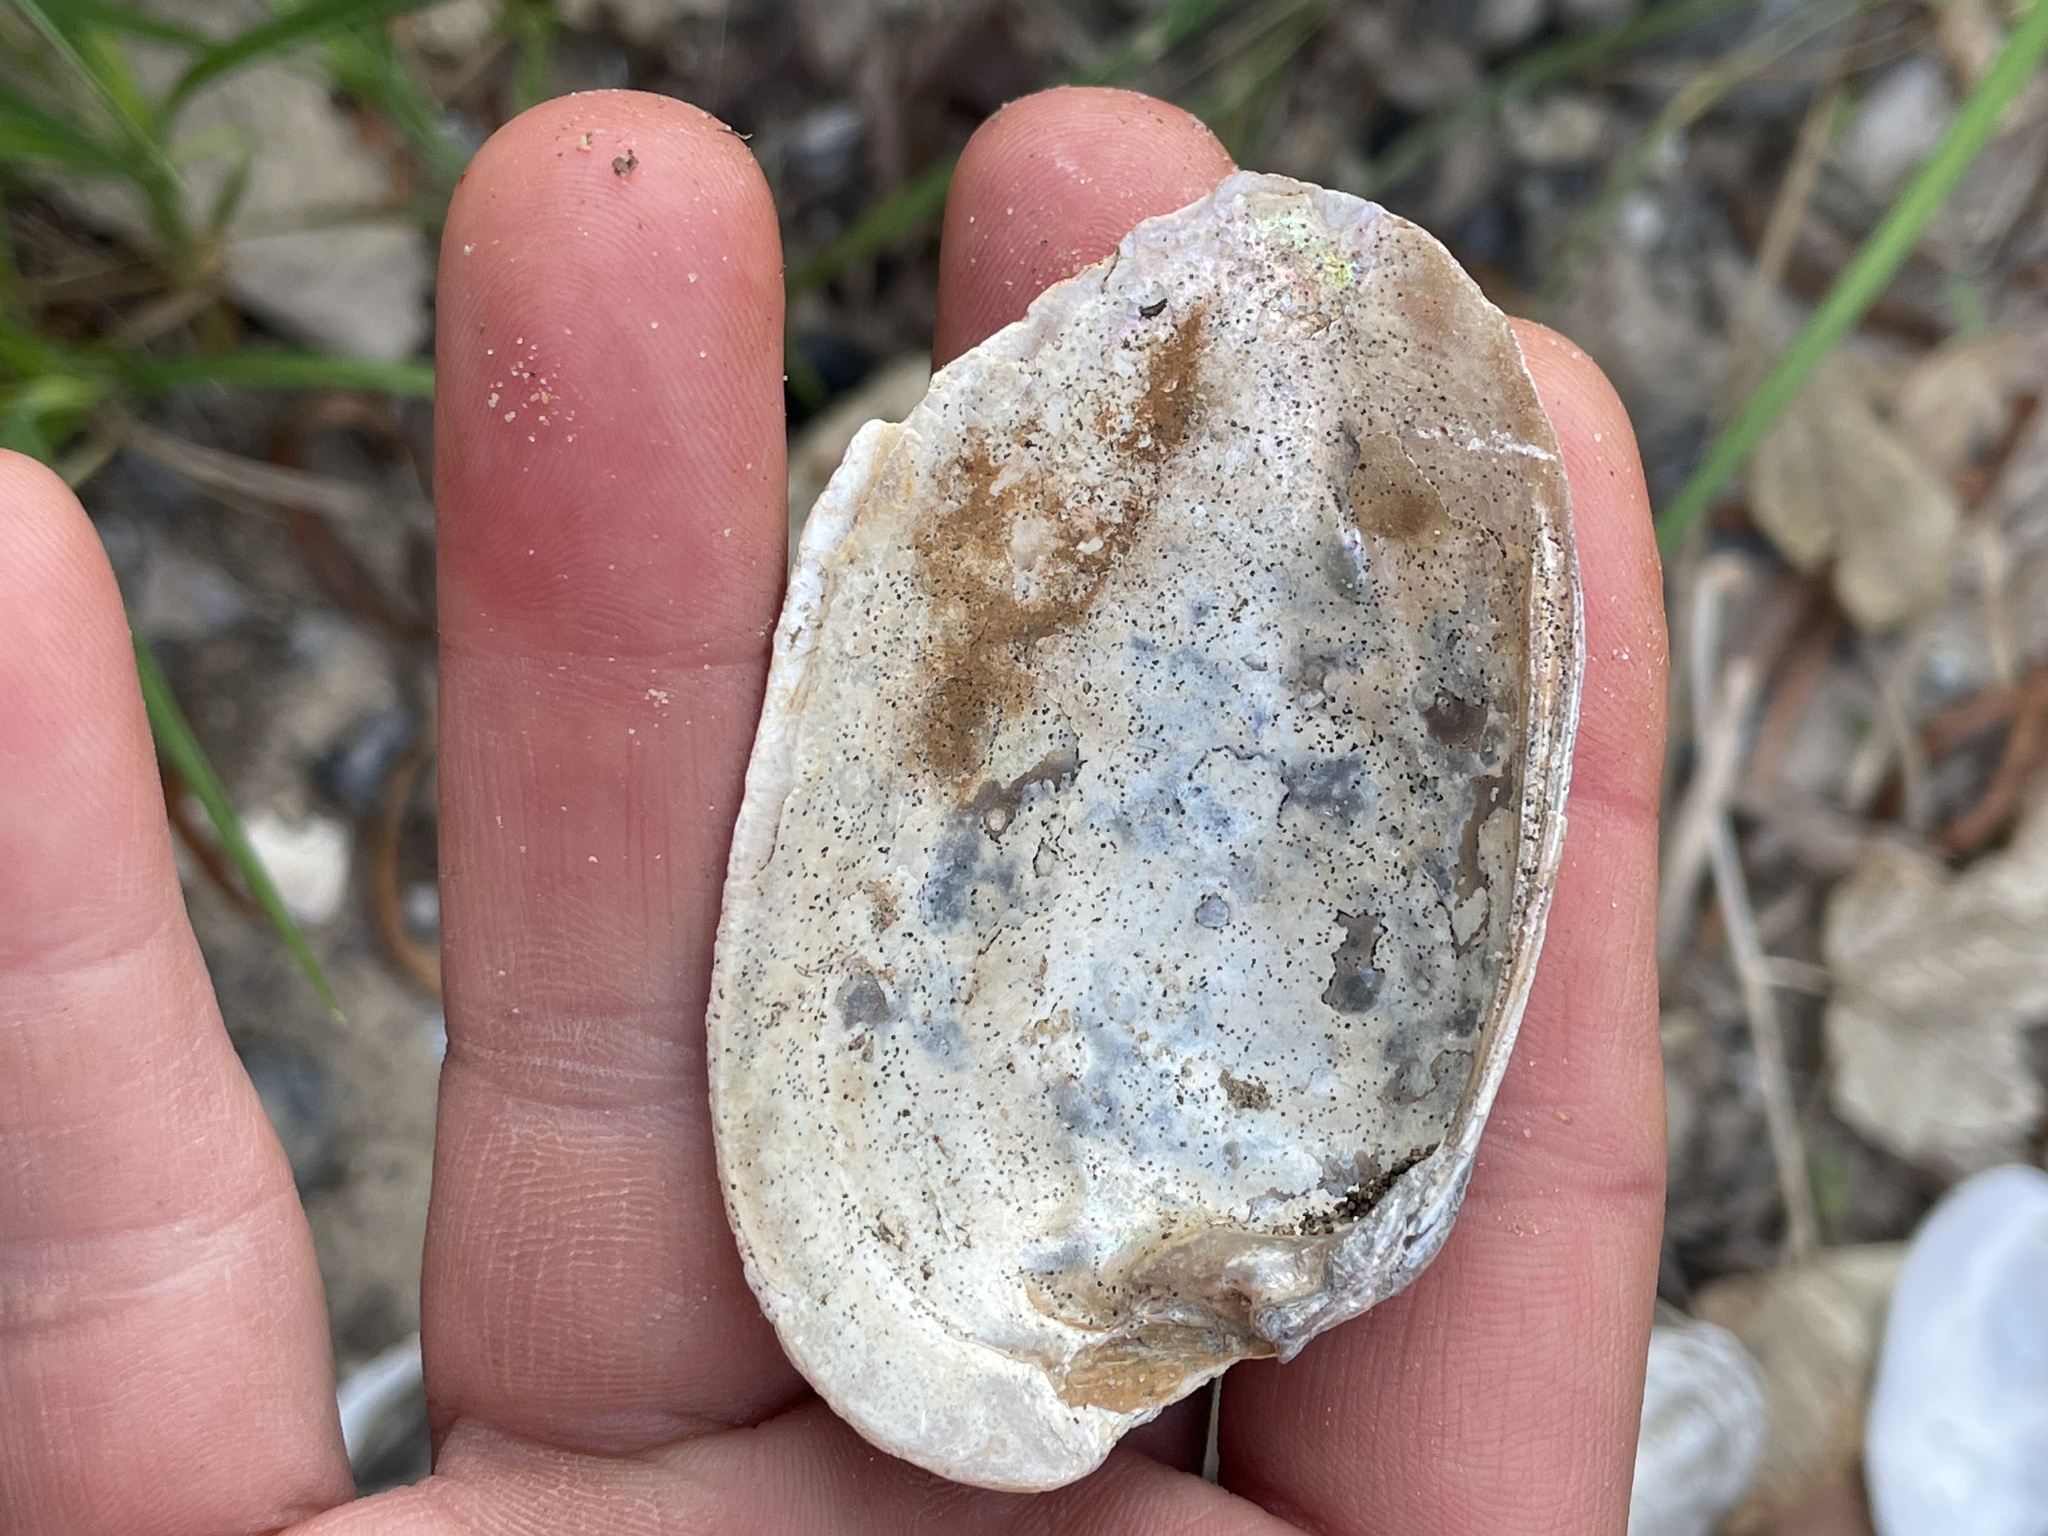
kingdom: Animalia
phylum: Mollusca
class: Bivalvia
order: Unionida
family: Unionidae
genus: Lampsilis
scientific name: Lampsilis hydiana
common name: Louisiana fatmucket
